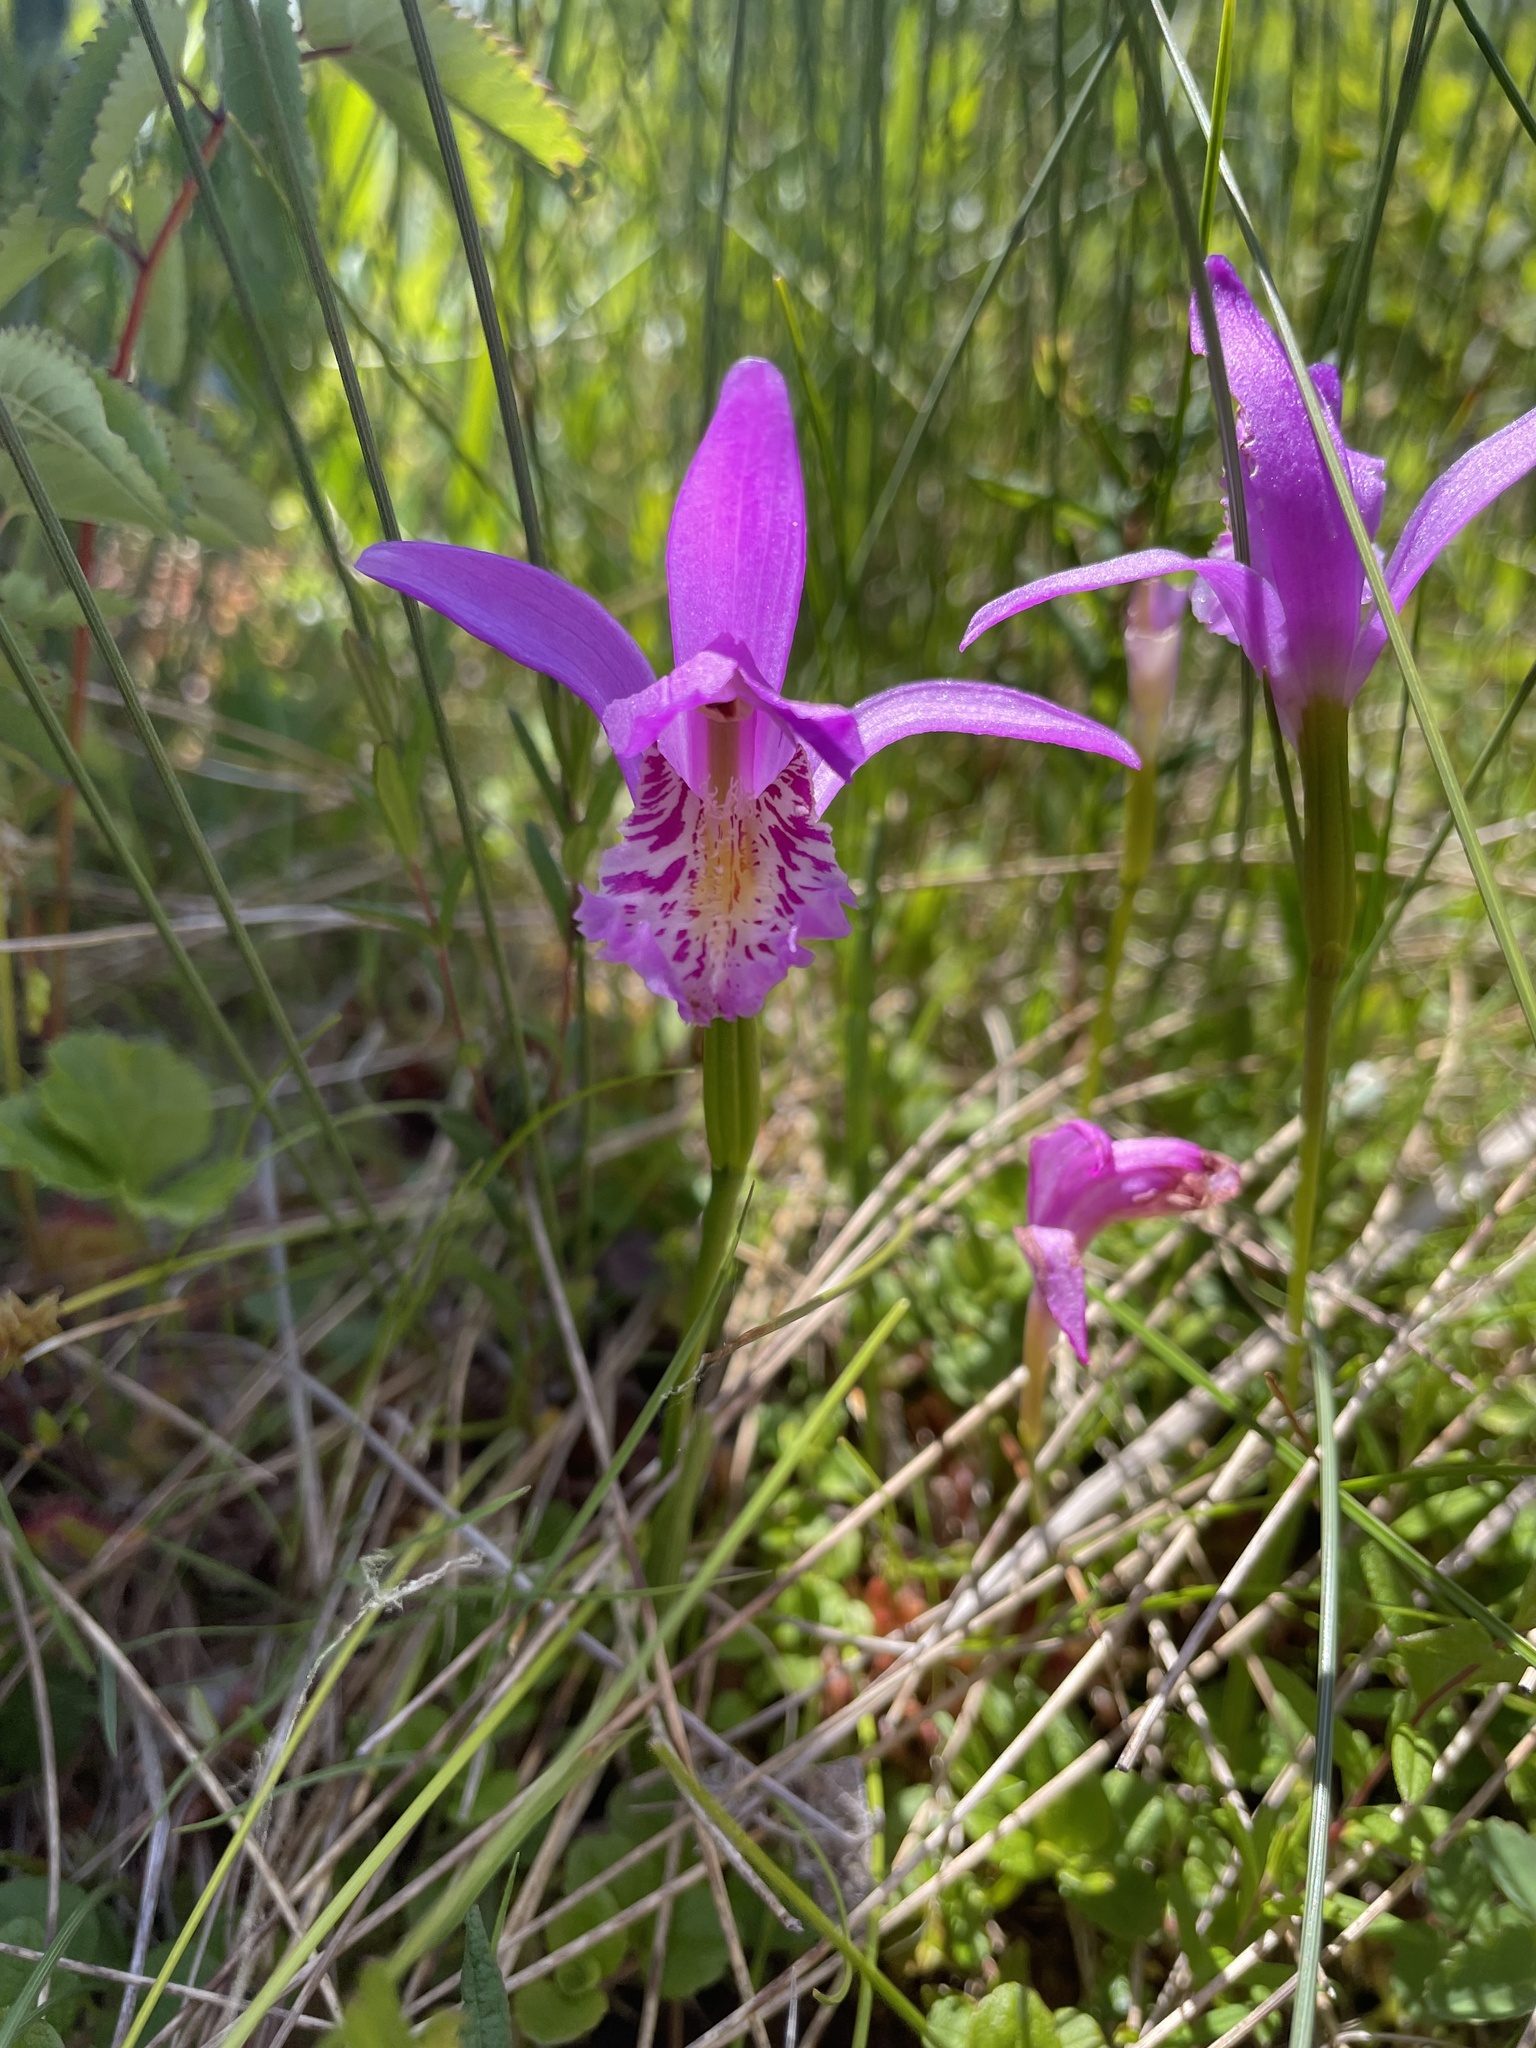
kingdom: Plantae
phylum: Tracheophyta
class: Liliopsida
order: Asparagales
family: Orchidaceae
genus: Arethusa
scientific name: Arethusa bulbosa
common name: Arethusa
